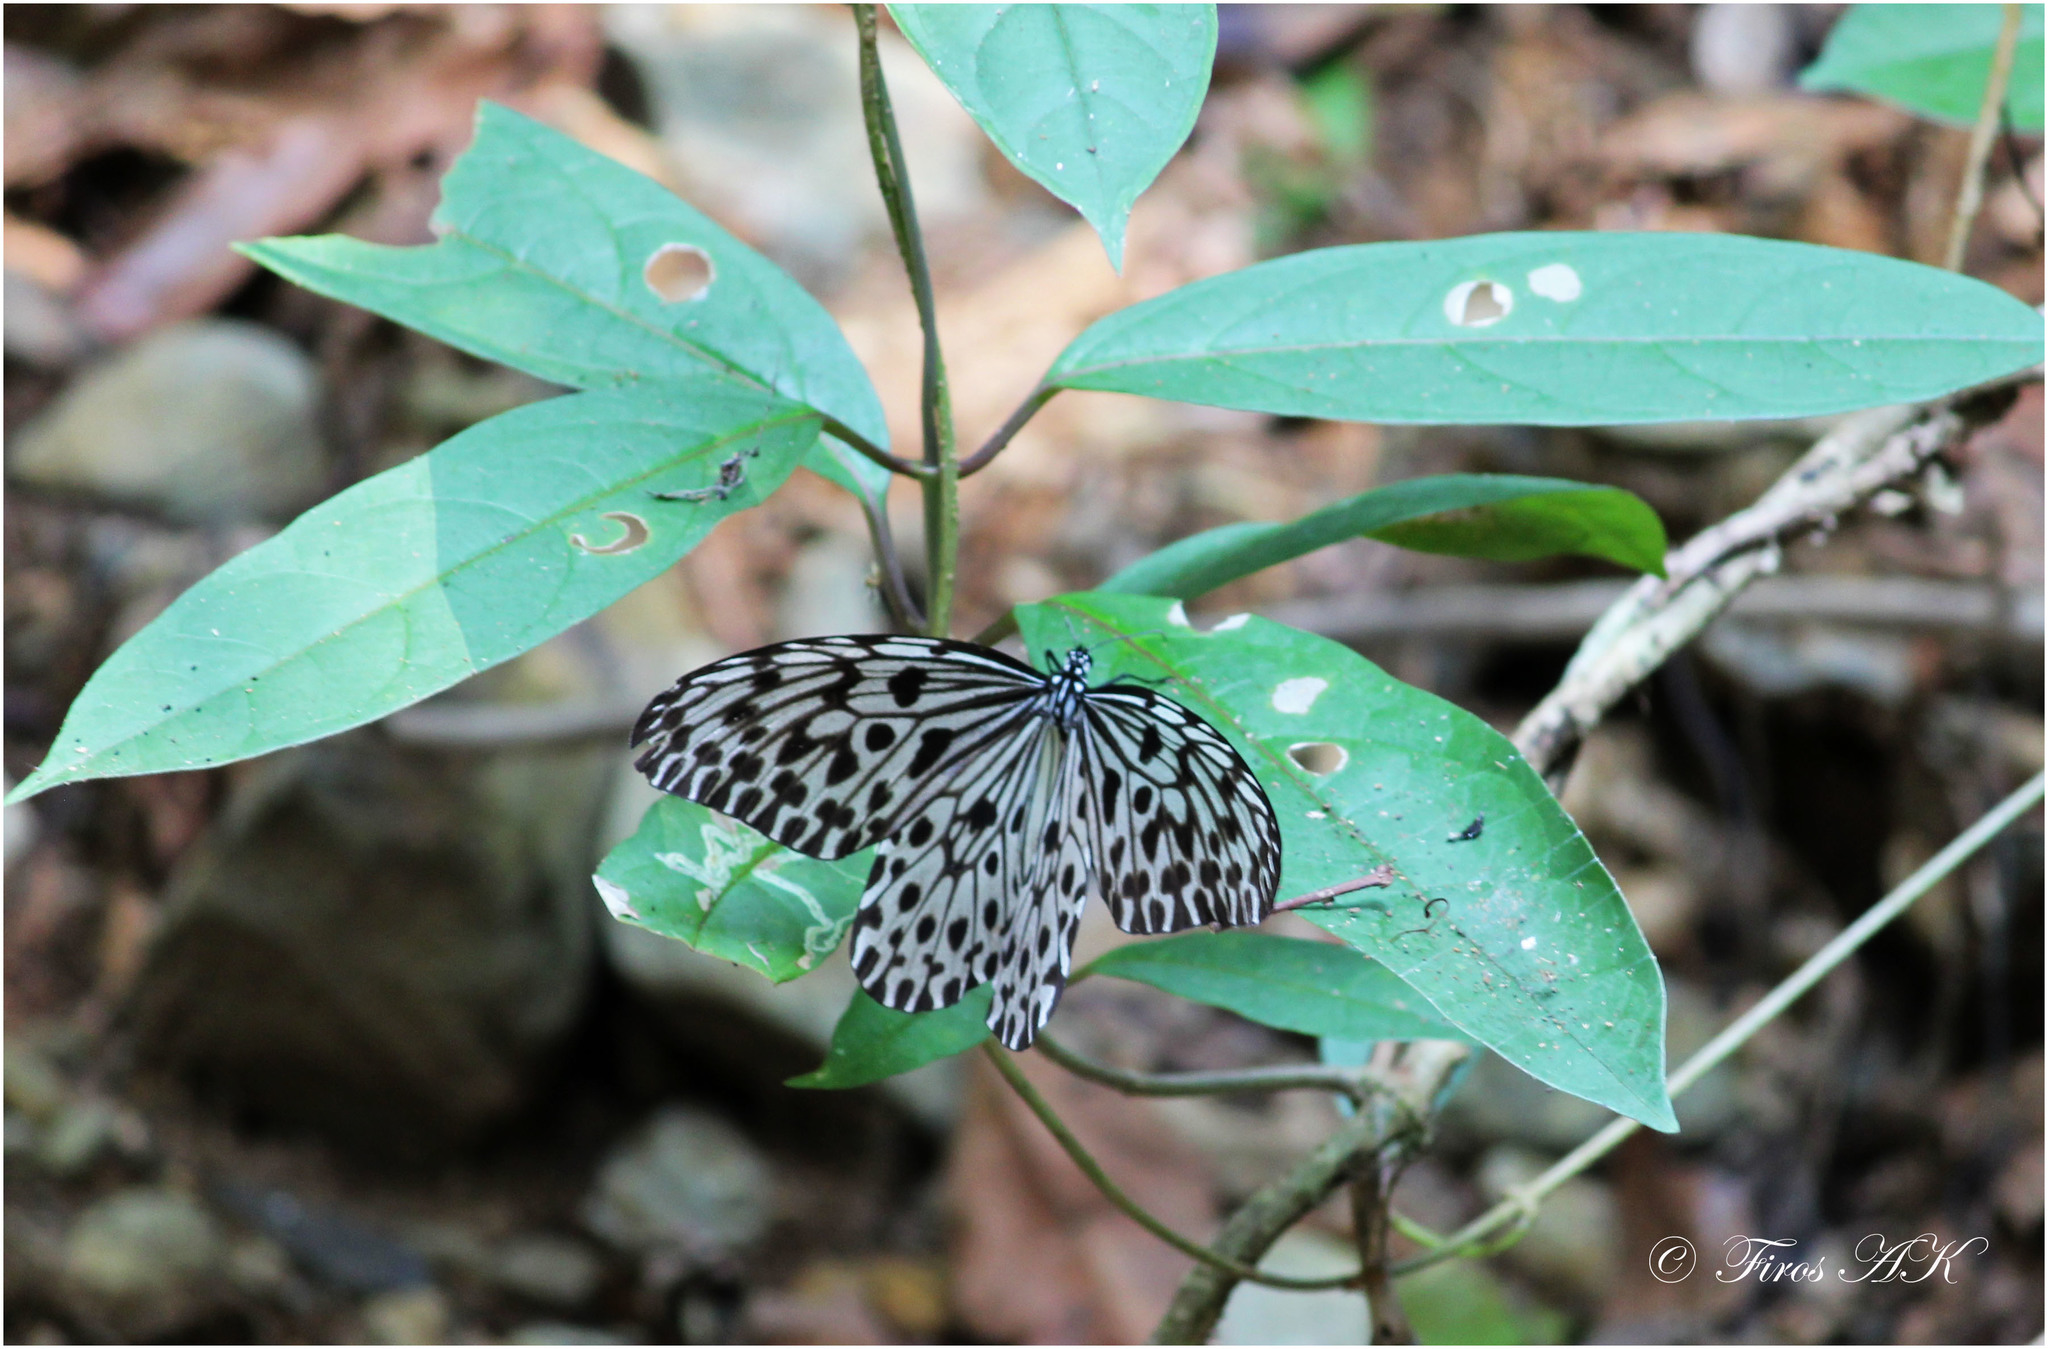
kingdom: Animalia
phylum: Arthropoda
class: Insecta
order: Lepidoptera
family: Nymphalidae
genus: Idea
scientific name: Idea malabarica
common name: Malabar tree-nymph
